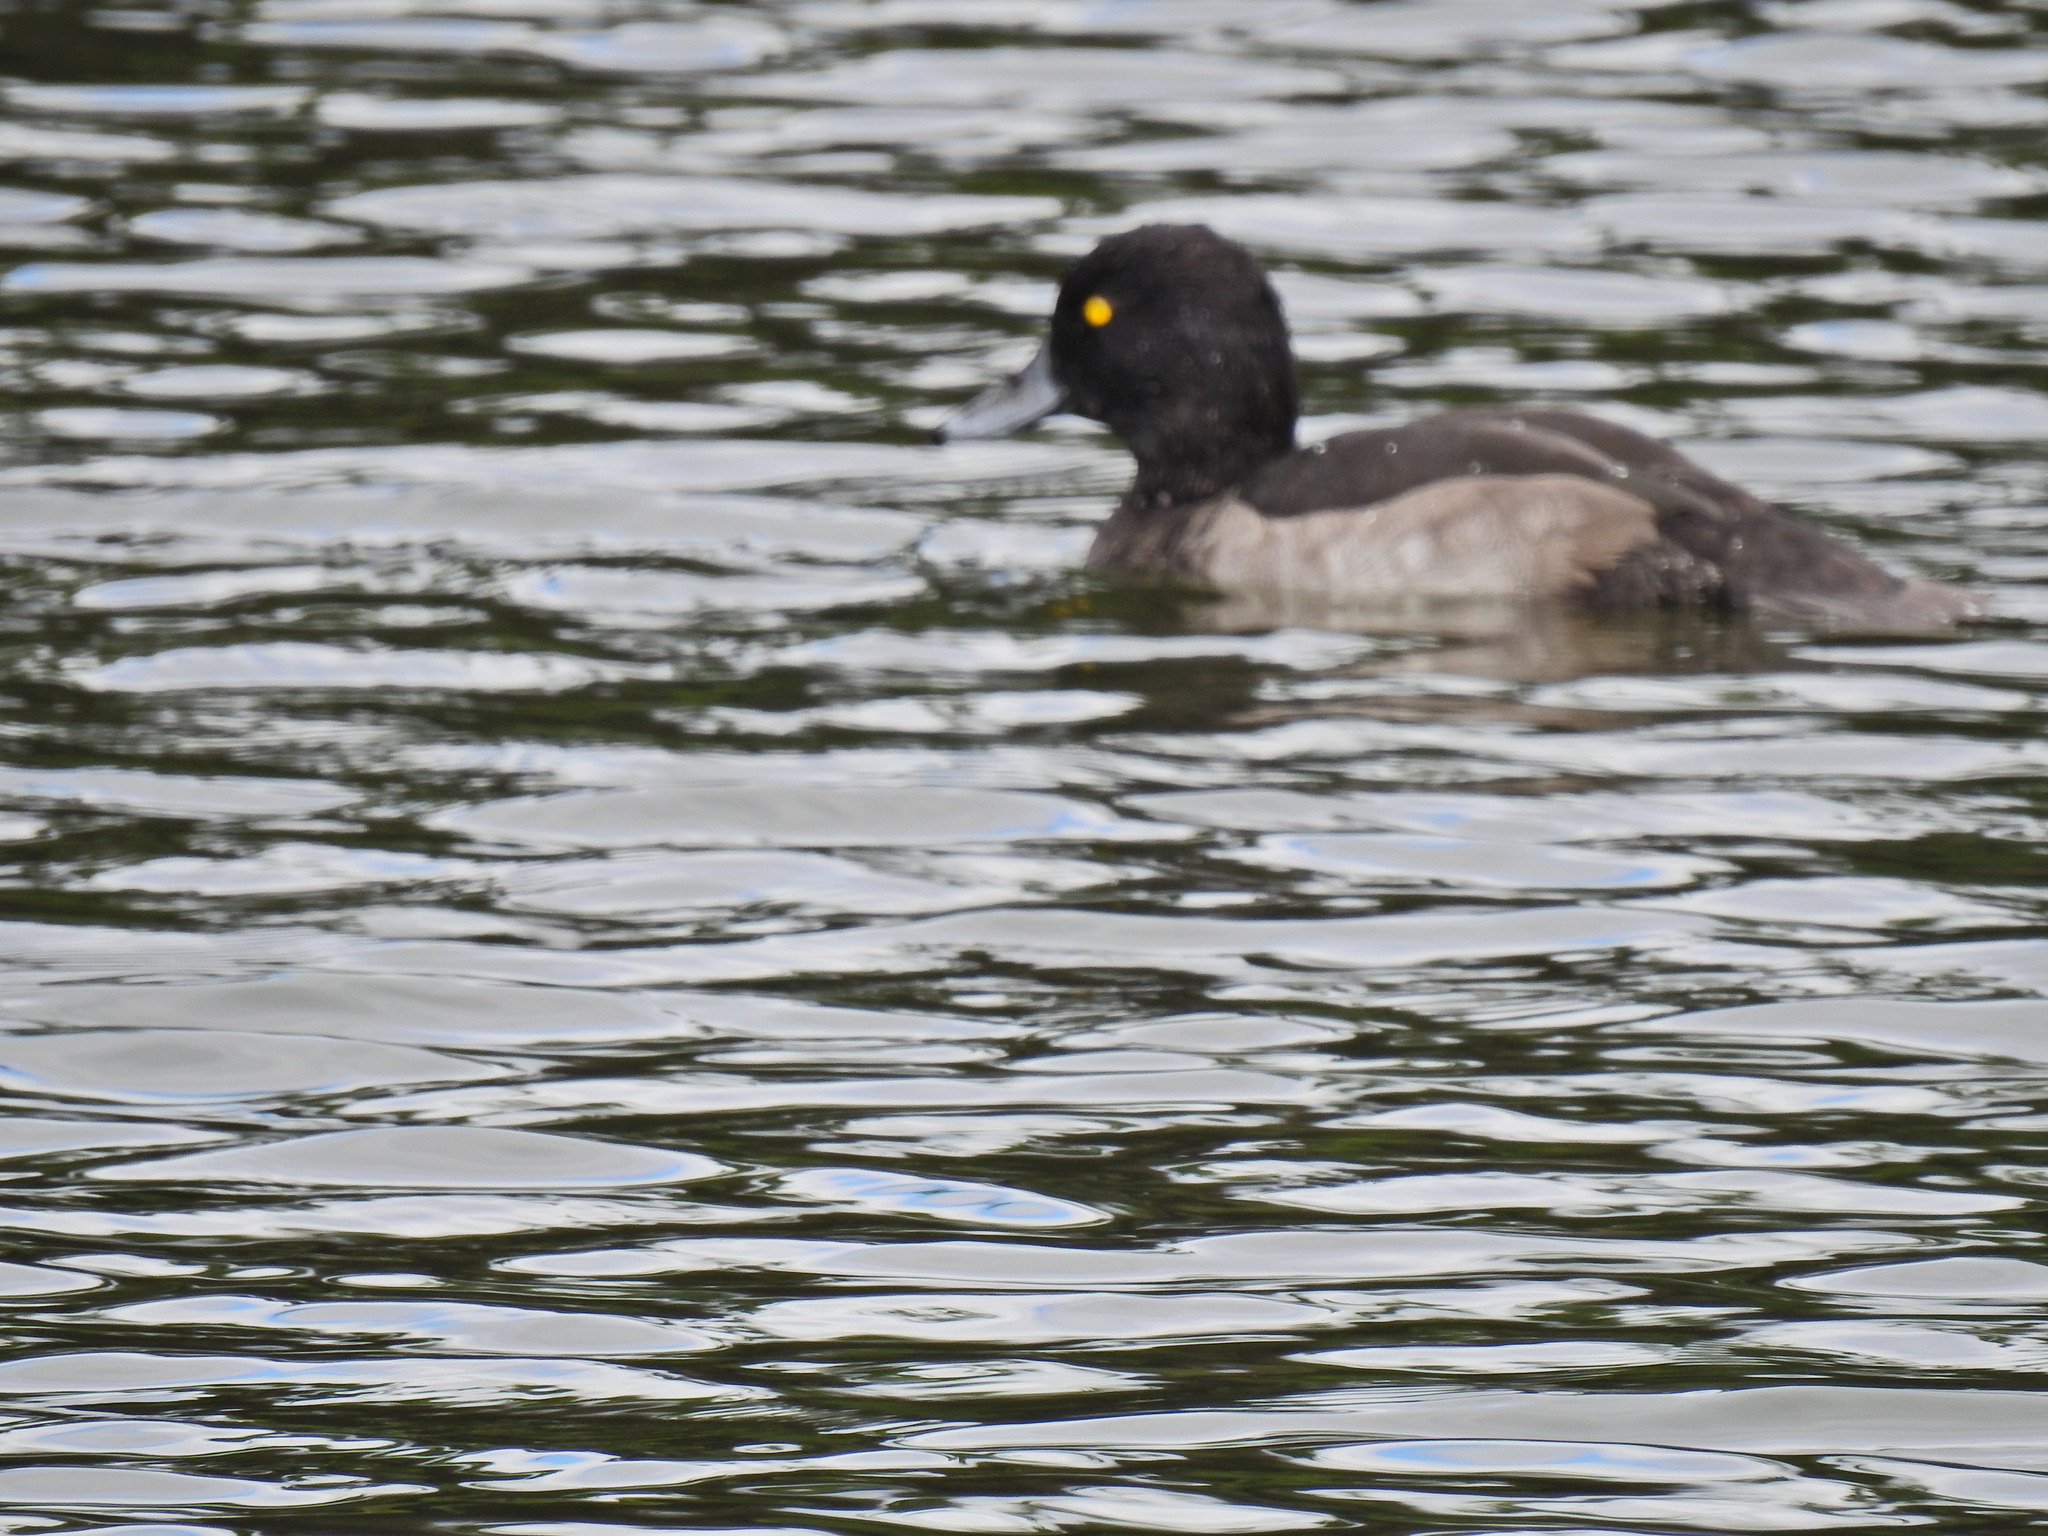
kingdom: Animalia
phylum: Chordata
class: Aves
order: Anseriformes
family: Anatidae
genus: Aythya
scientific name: Aythya fuligula
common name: Tufted duck
